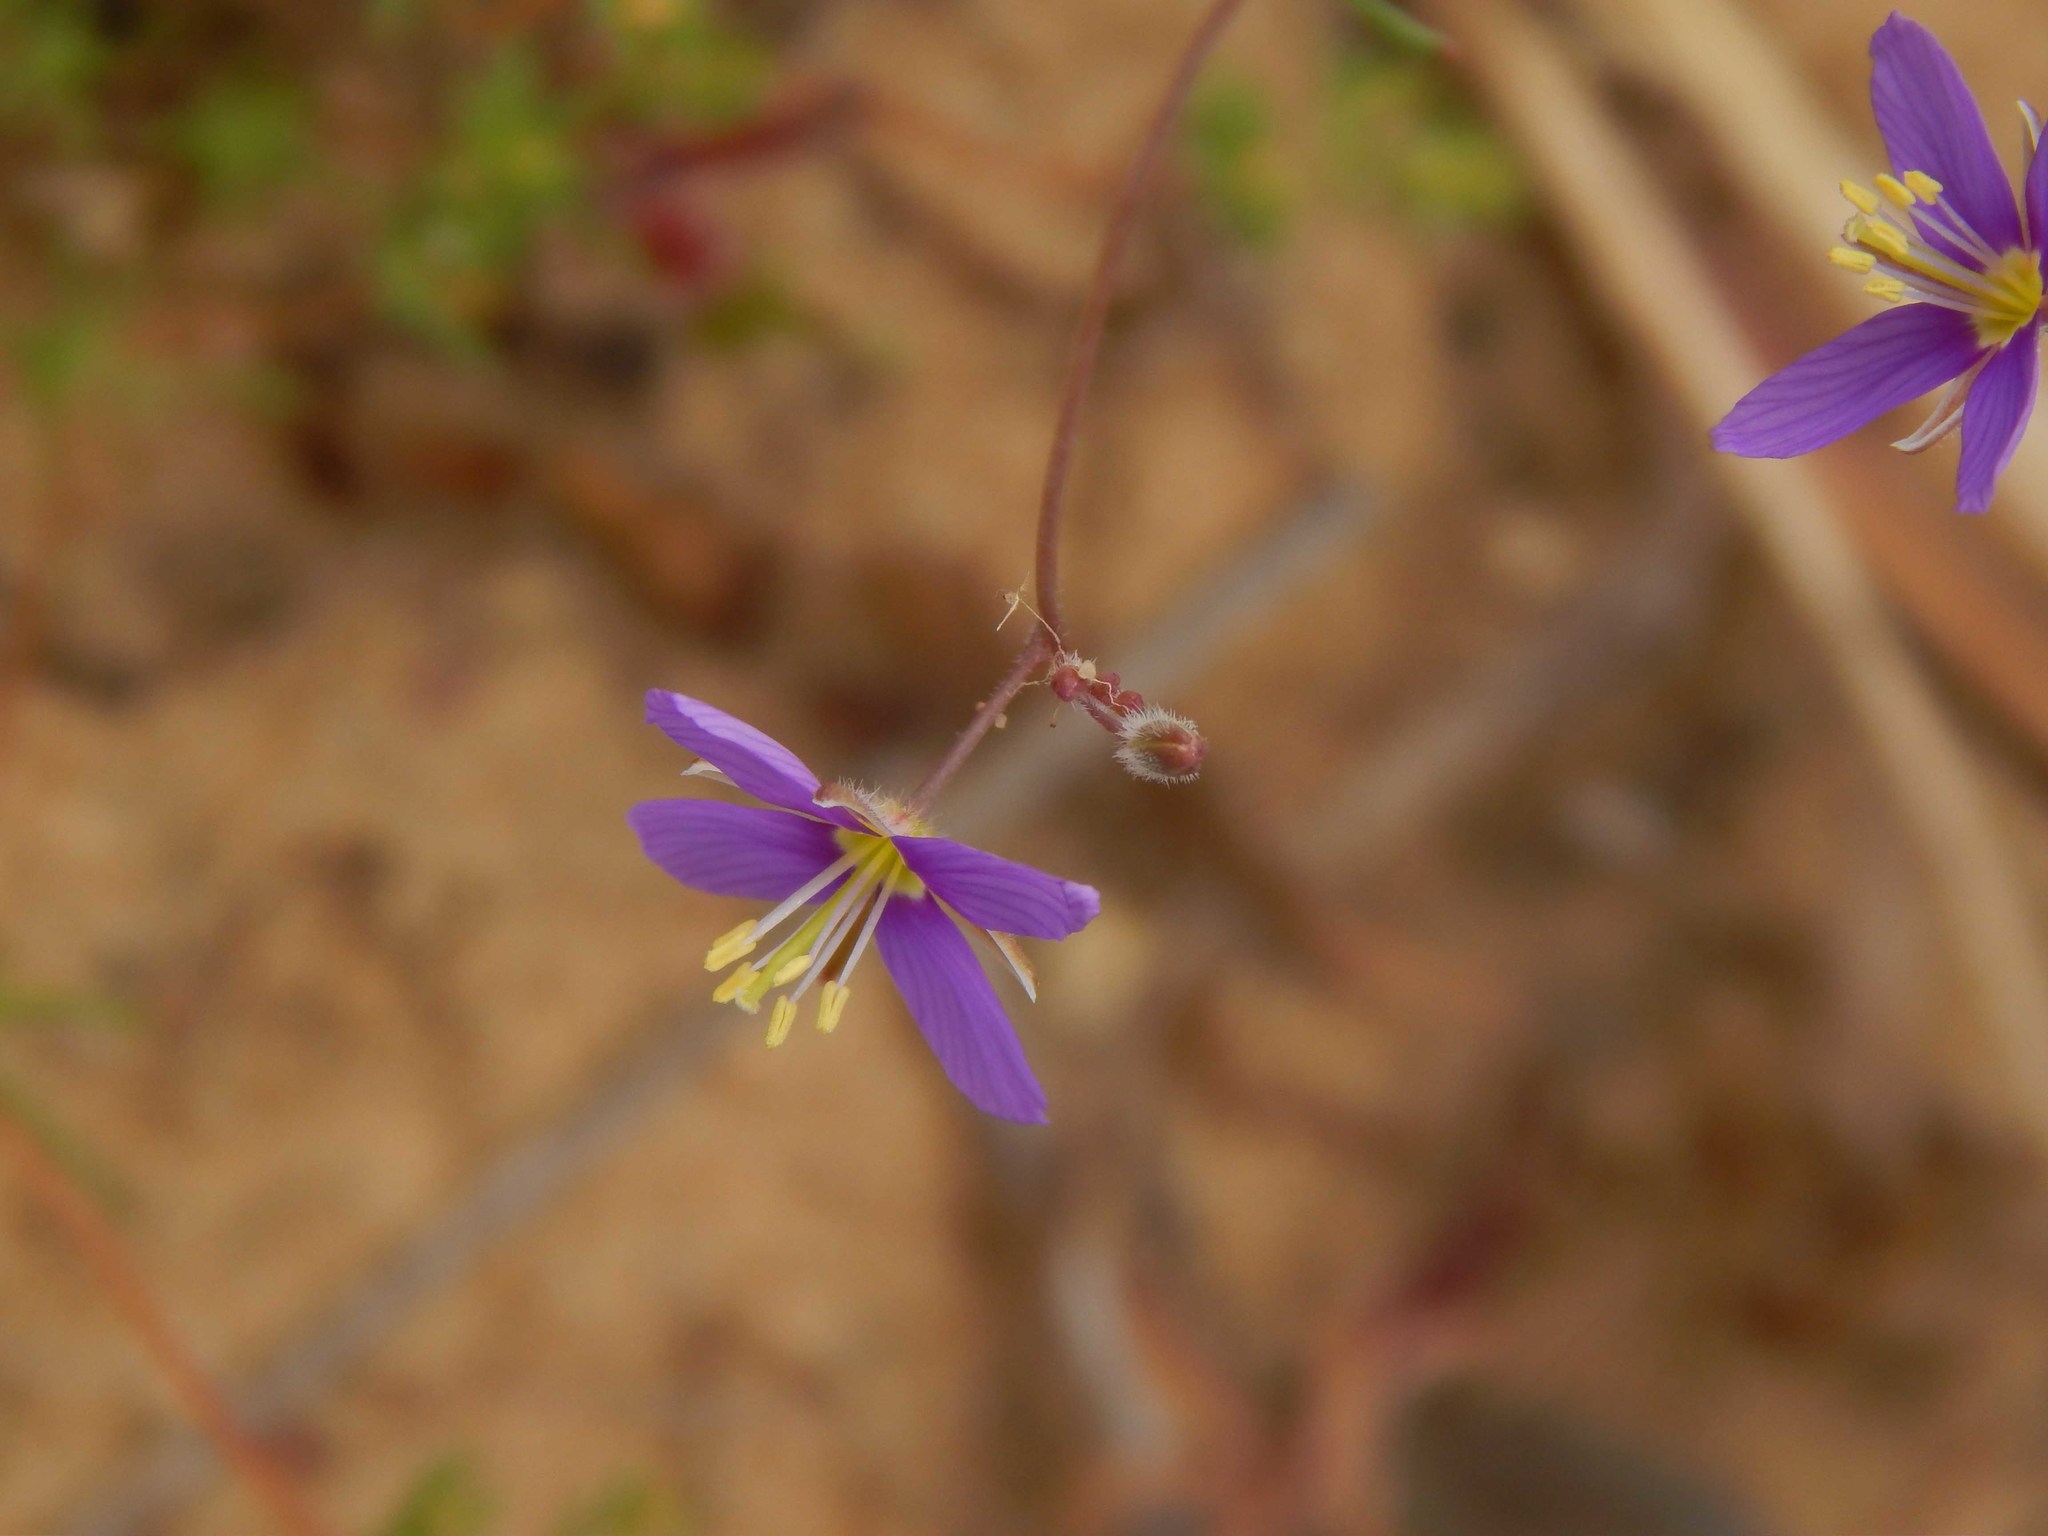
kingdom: Plantae
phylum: Tracheophyta
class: Magnoliopsida
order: Brassicales
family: Brassicaceae
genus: Heliophila
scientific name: Heliophila arenosa
